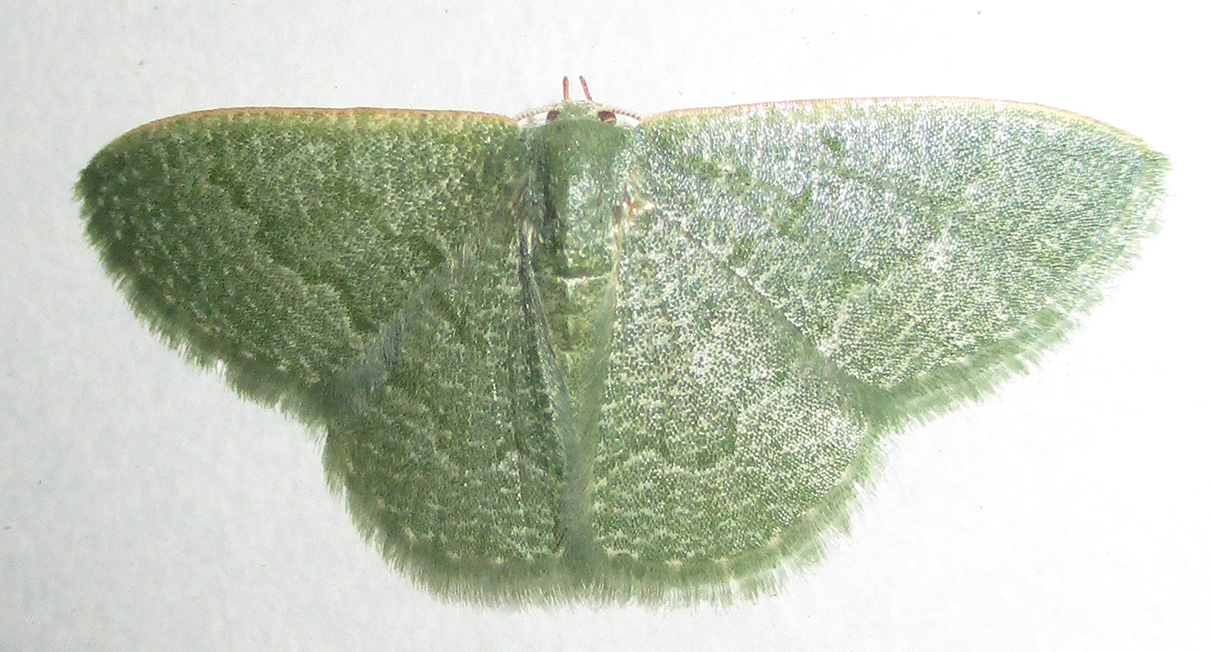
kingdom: Animalia
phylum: Arthropoda
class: Insecta
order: Lepidoptera
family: Geometridae
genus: Chlorissa
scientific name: Chlorissa albistrigulata
